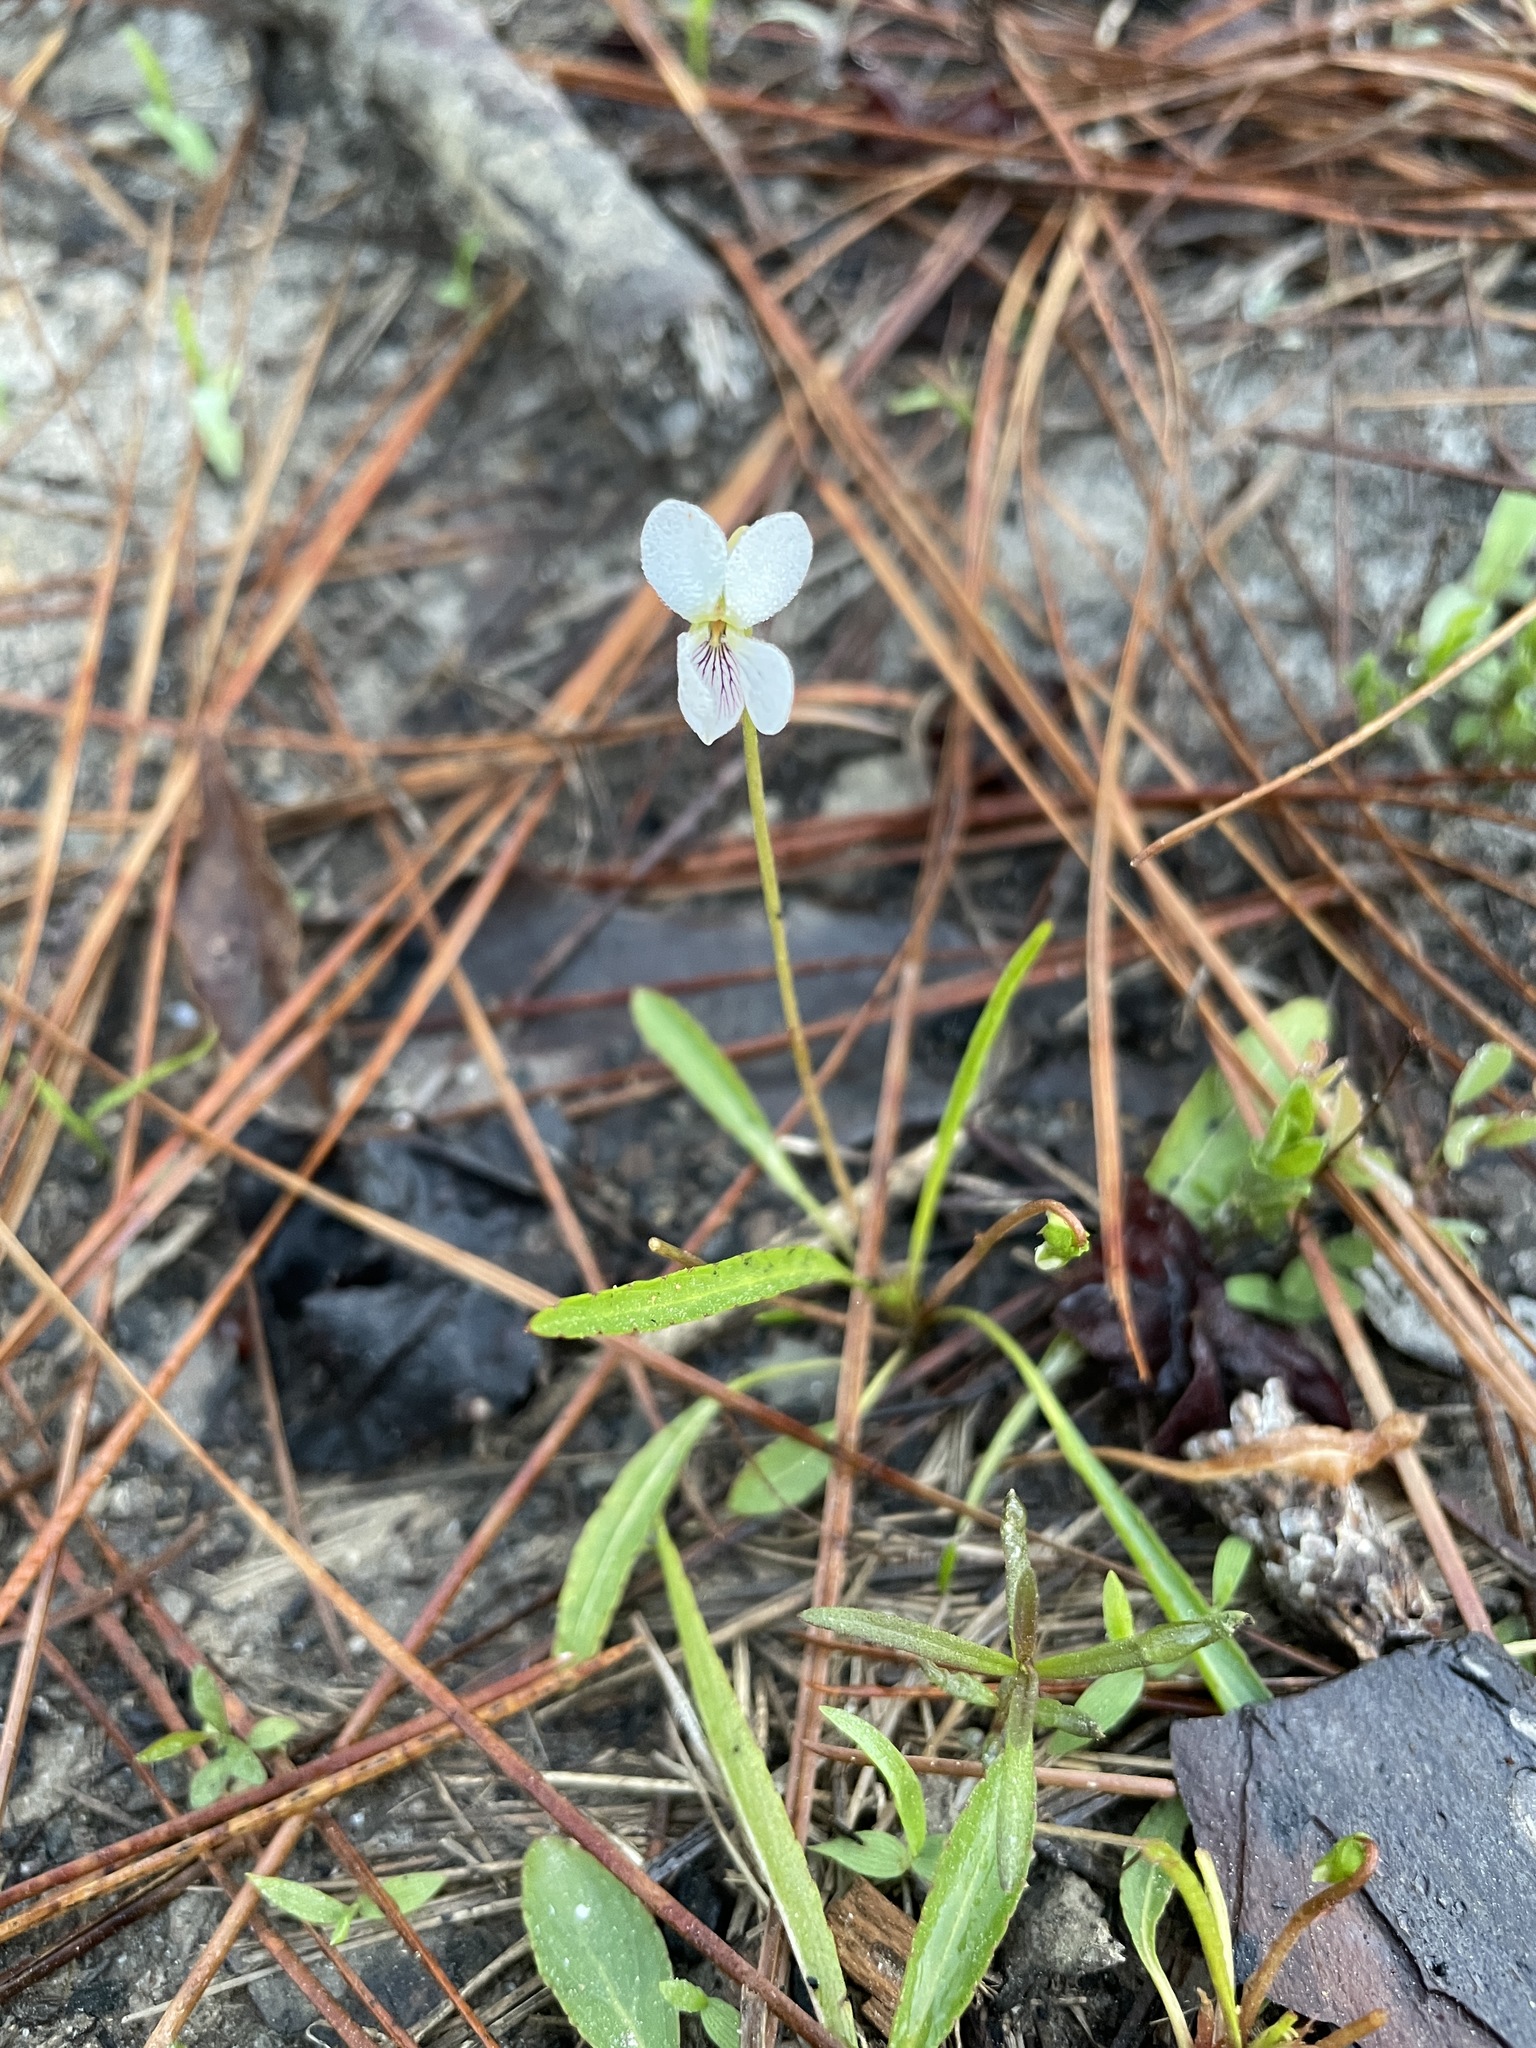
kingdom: Plantae
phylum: Tracheophyta
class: Magnoliopsida
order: Malpighiales
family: Violaceae
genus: Viola
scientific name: Viola lanceolata
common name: Bog white violet
